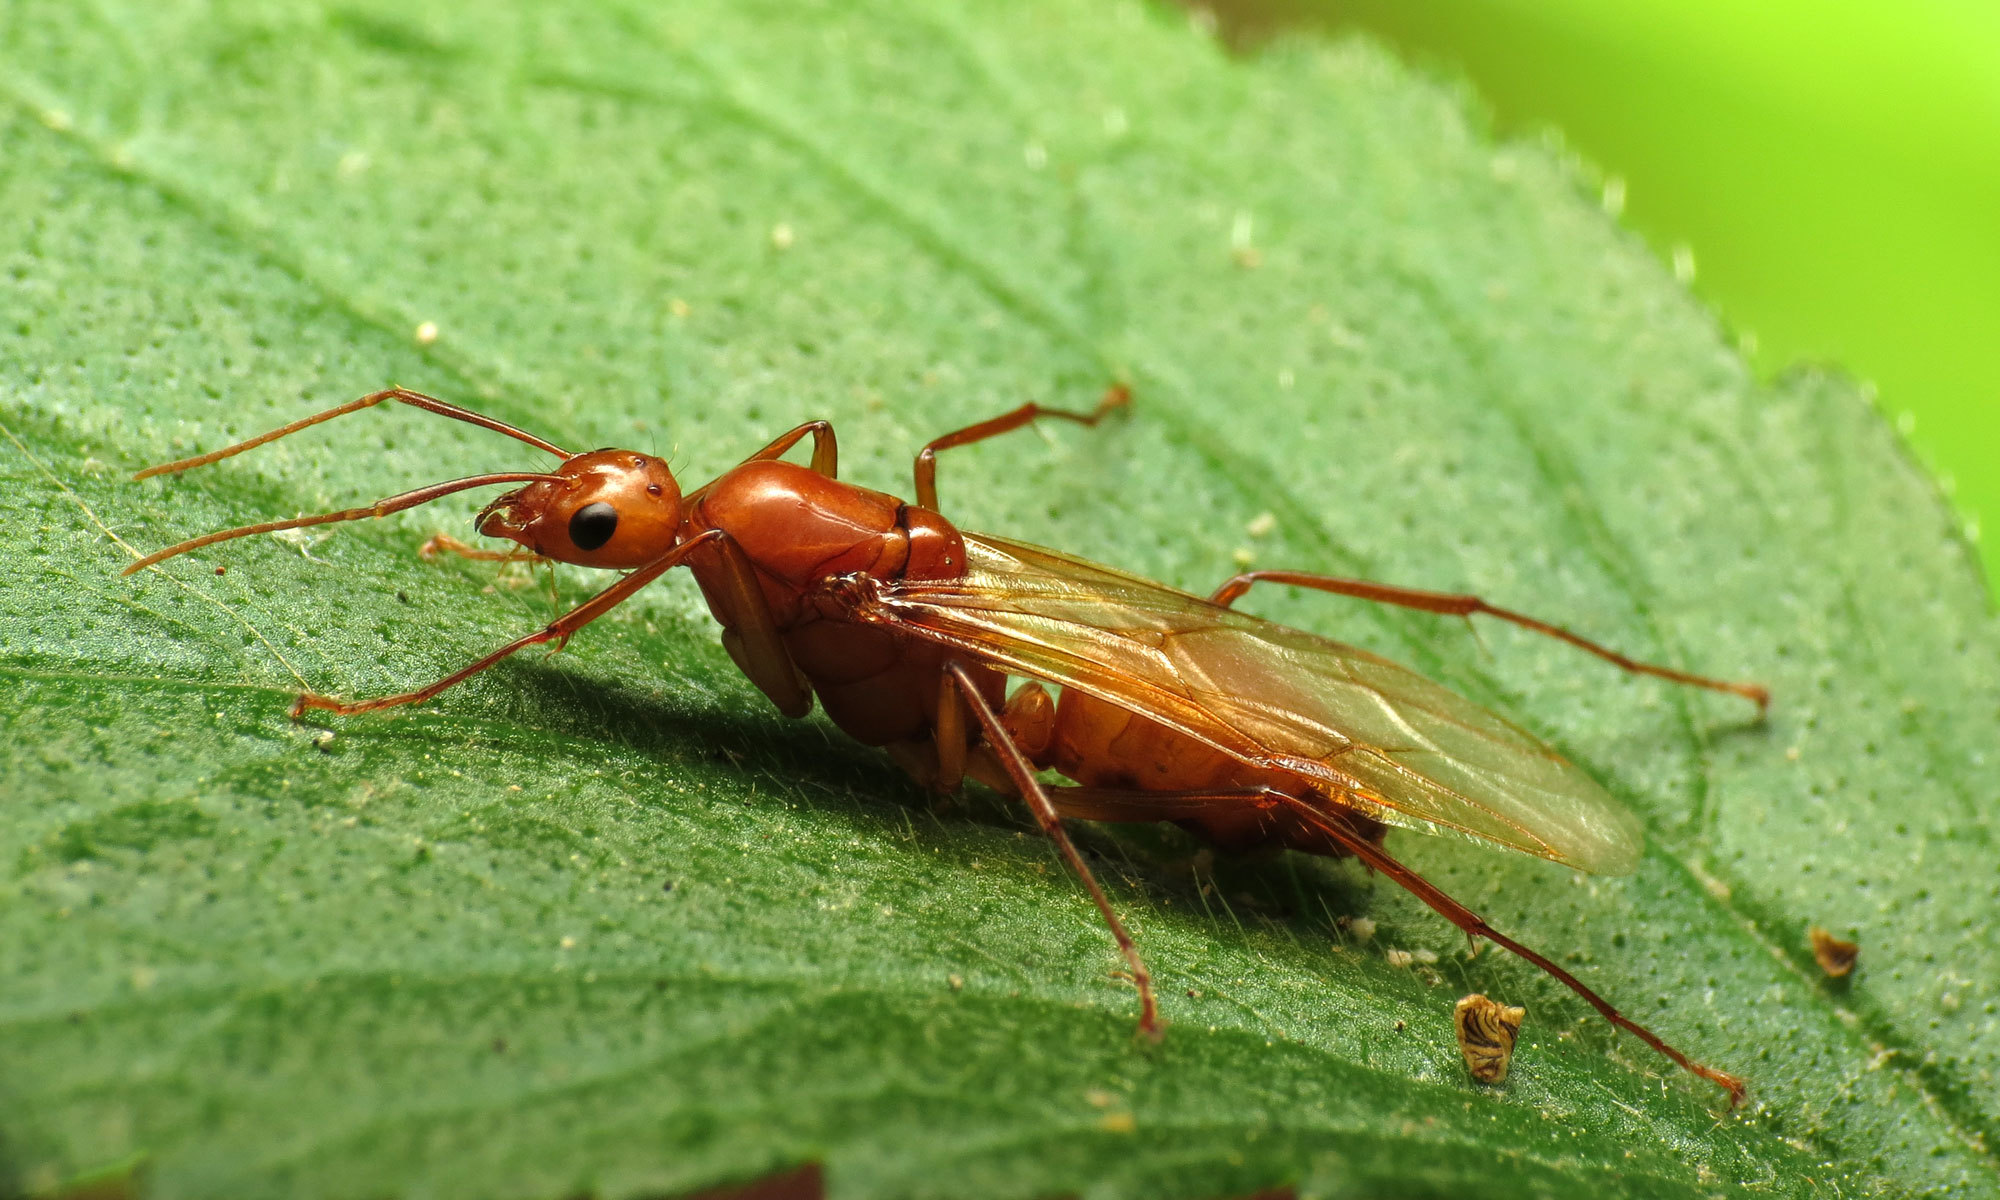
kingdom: Animalia
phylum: Arthropoda
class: Insecta
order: Hymenoptera
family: Formicidae
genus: Camponotus
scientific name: Camponotus castaneus
